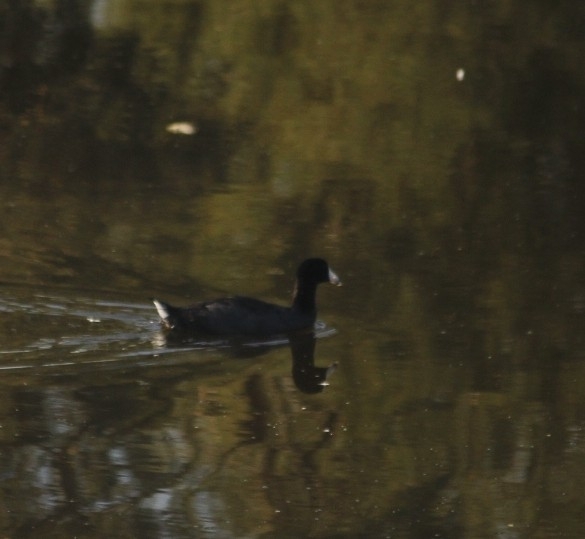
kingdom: Animalia
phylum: Chordata
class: Aves
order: Gruiformes
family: Rallidae
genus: Fulica
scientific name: Fulica americana
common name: American coot
